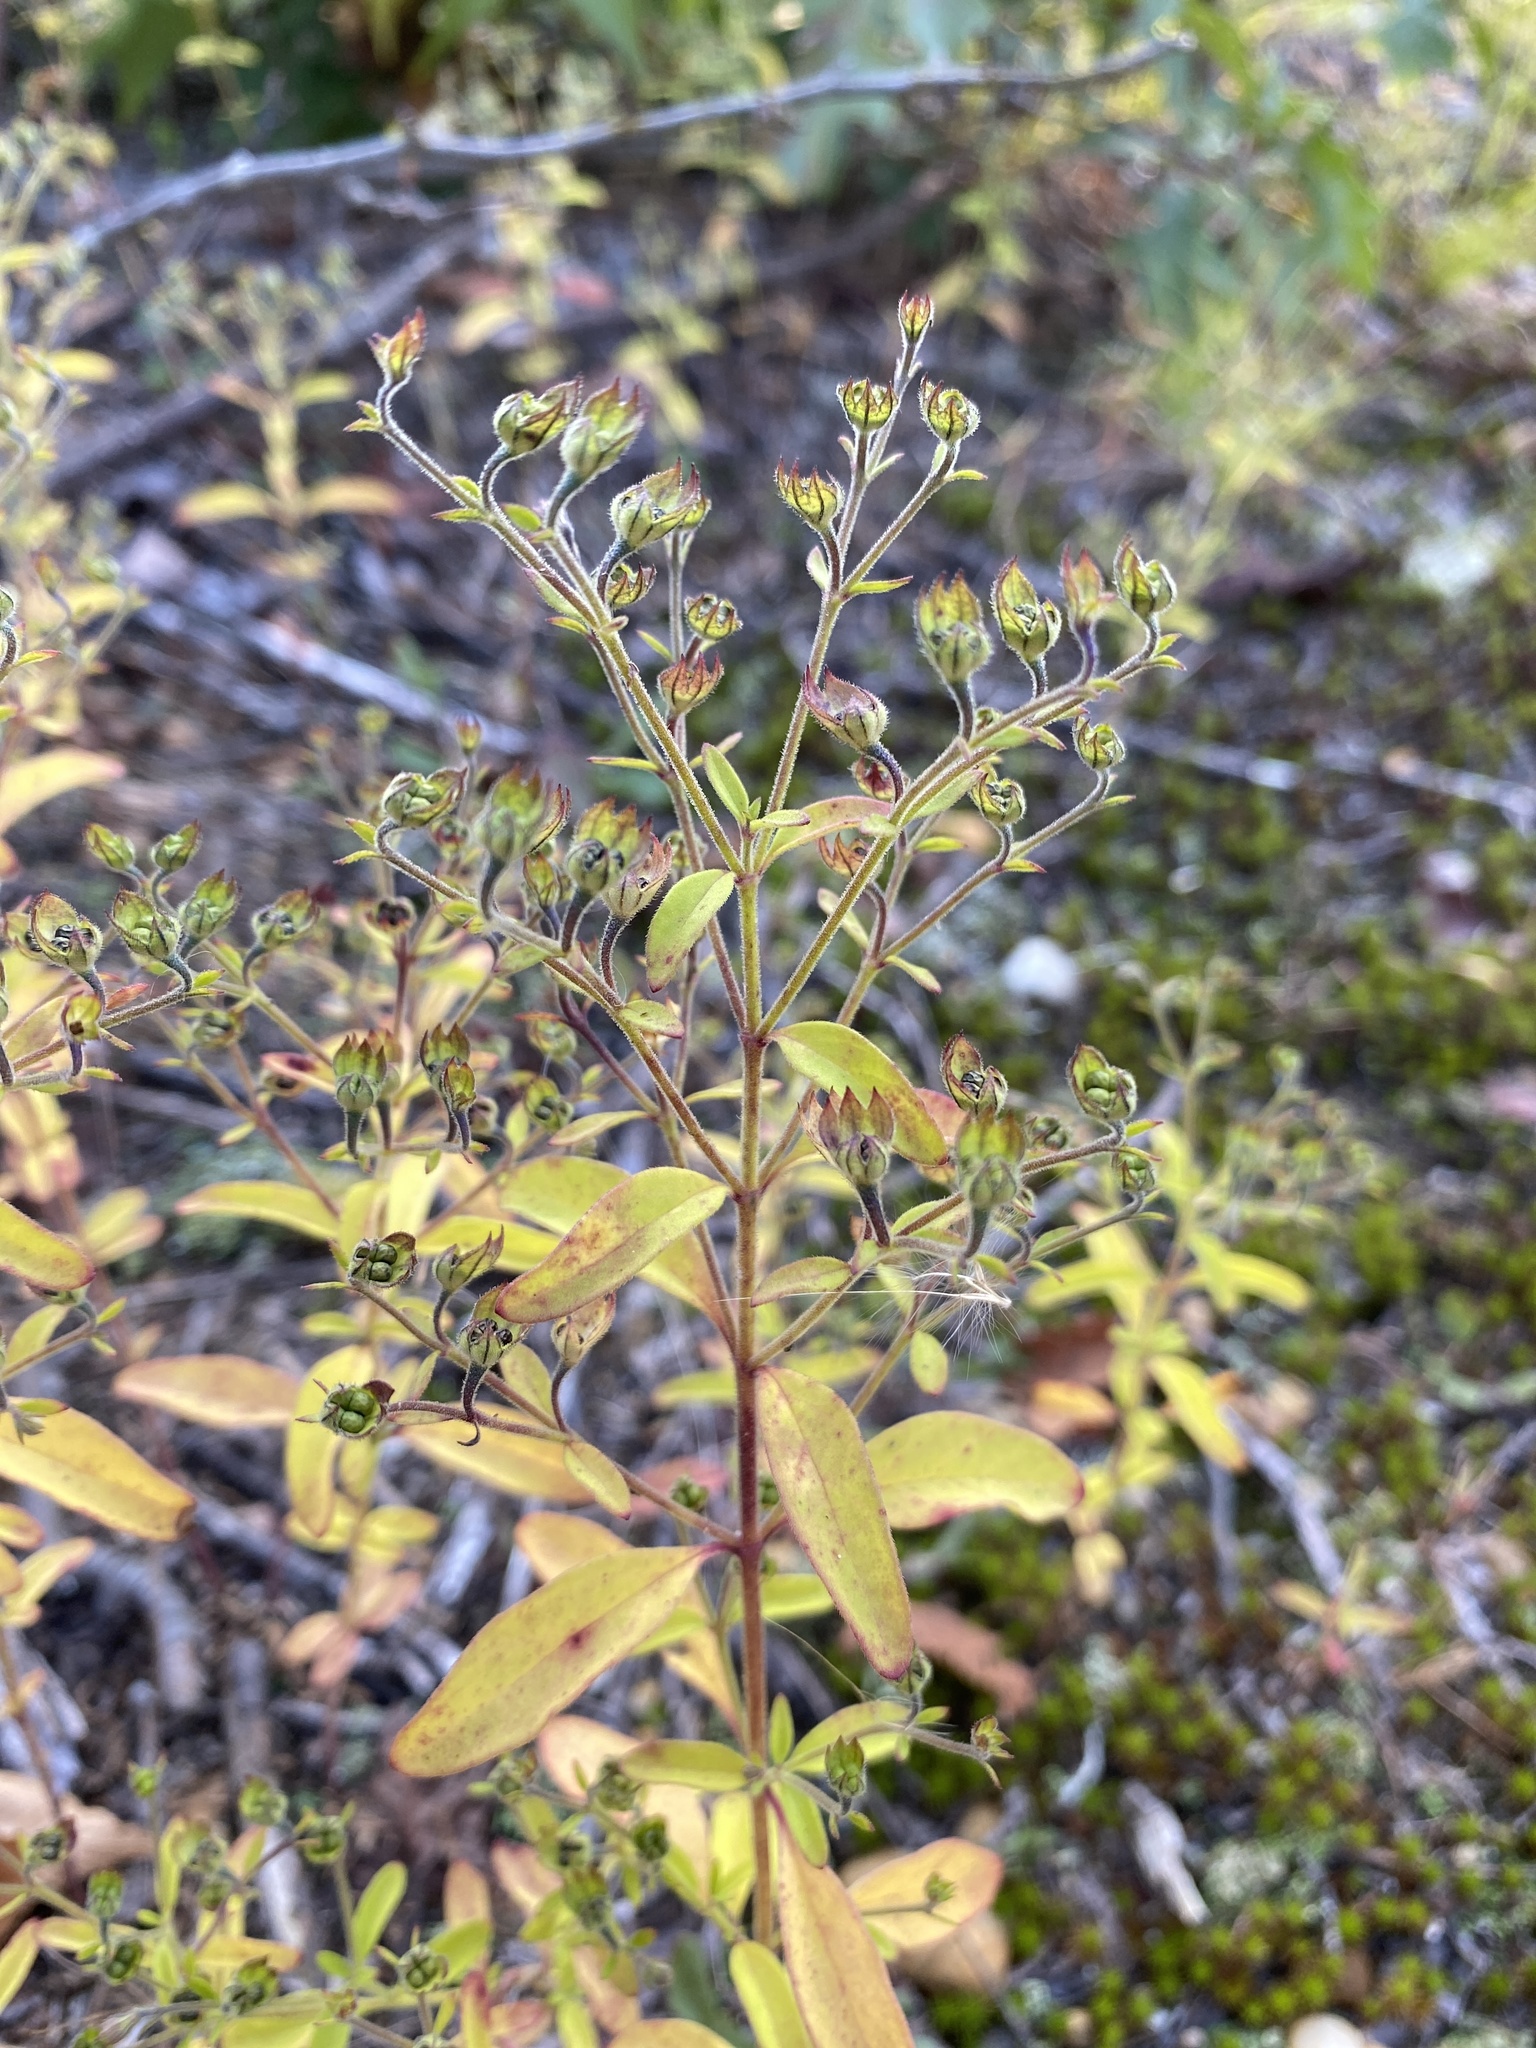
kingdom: Plantae
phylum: Tracheophyta
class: Magnoliopsida
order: Lamiales
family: Lamiaceae
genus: Trichostema
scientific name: Trichostema dichotomum
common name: Bastard pennyroyal
